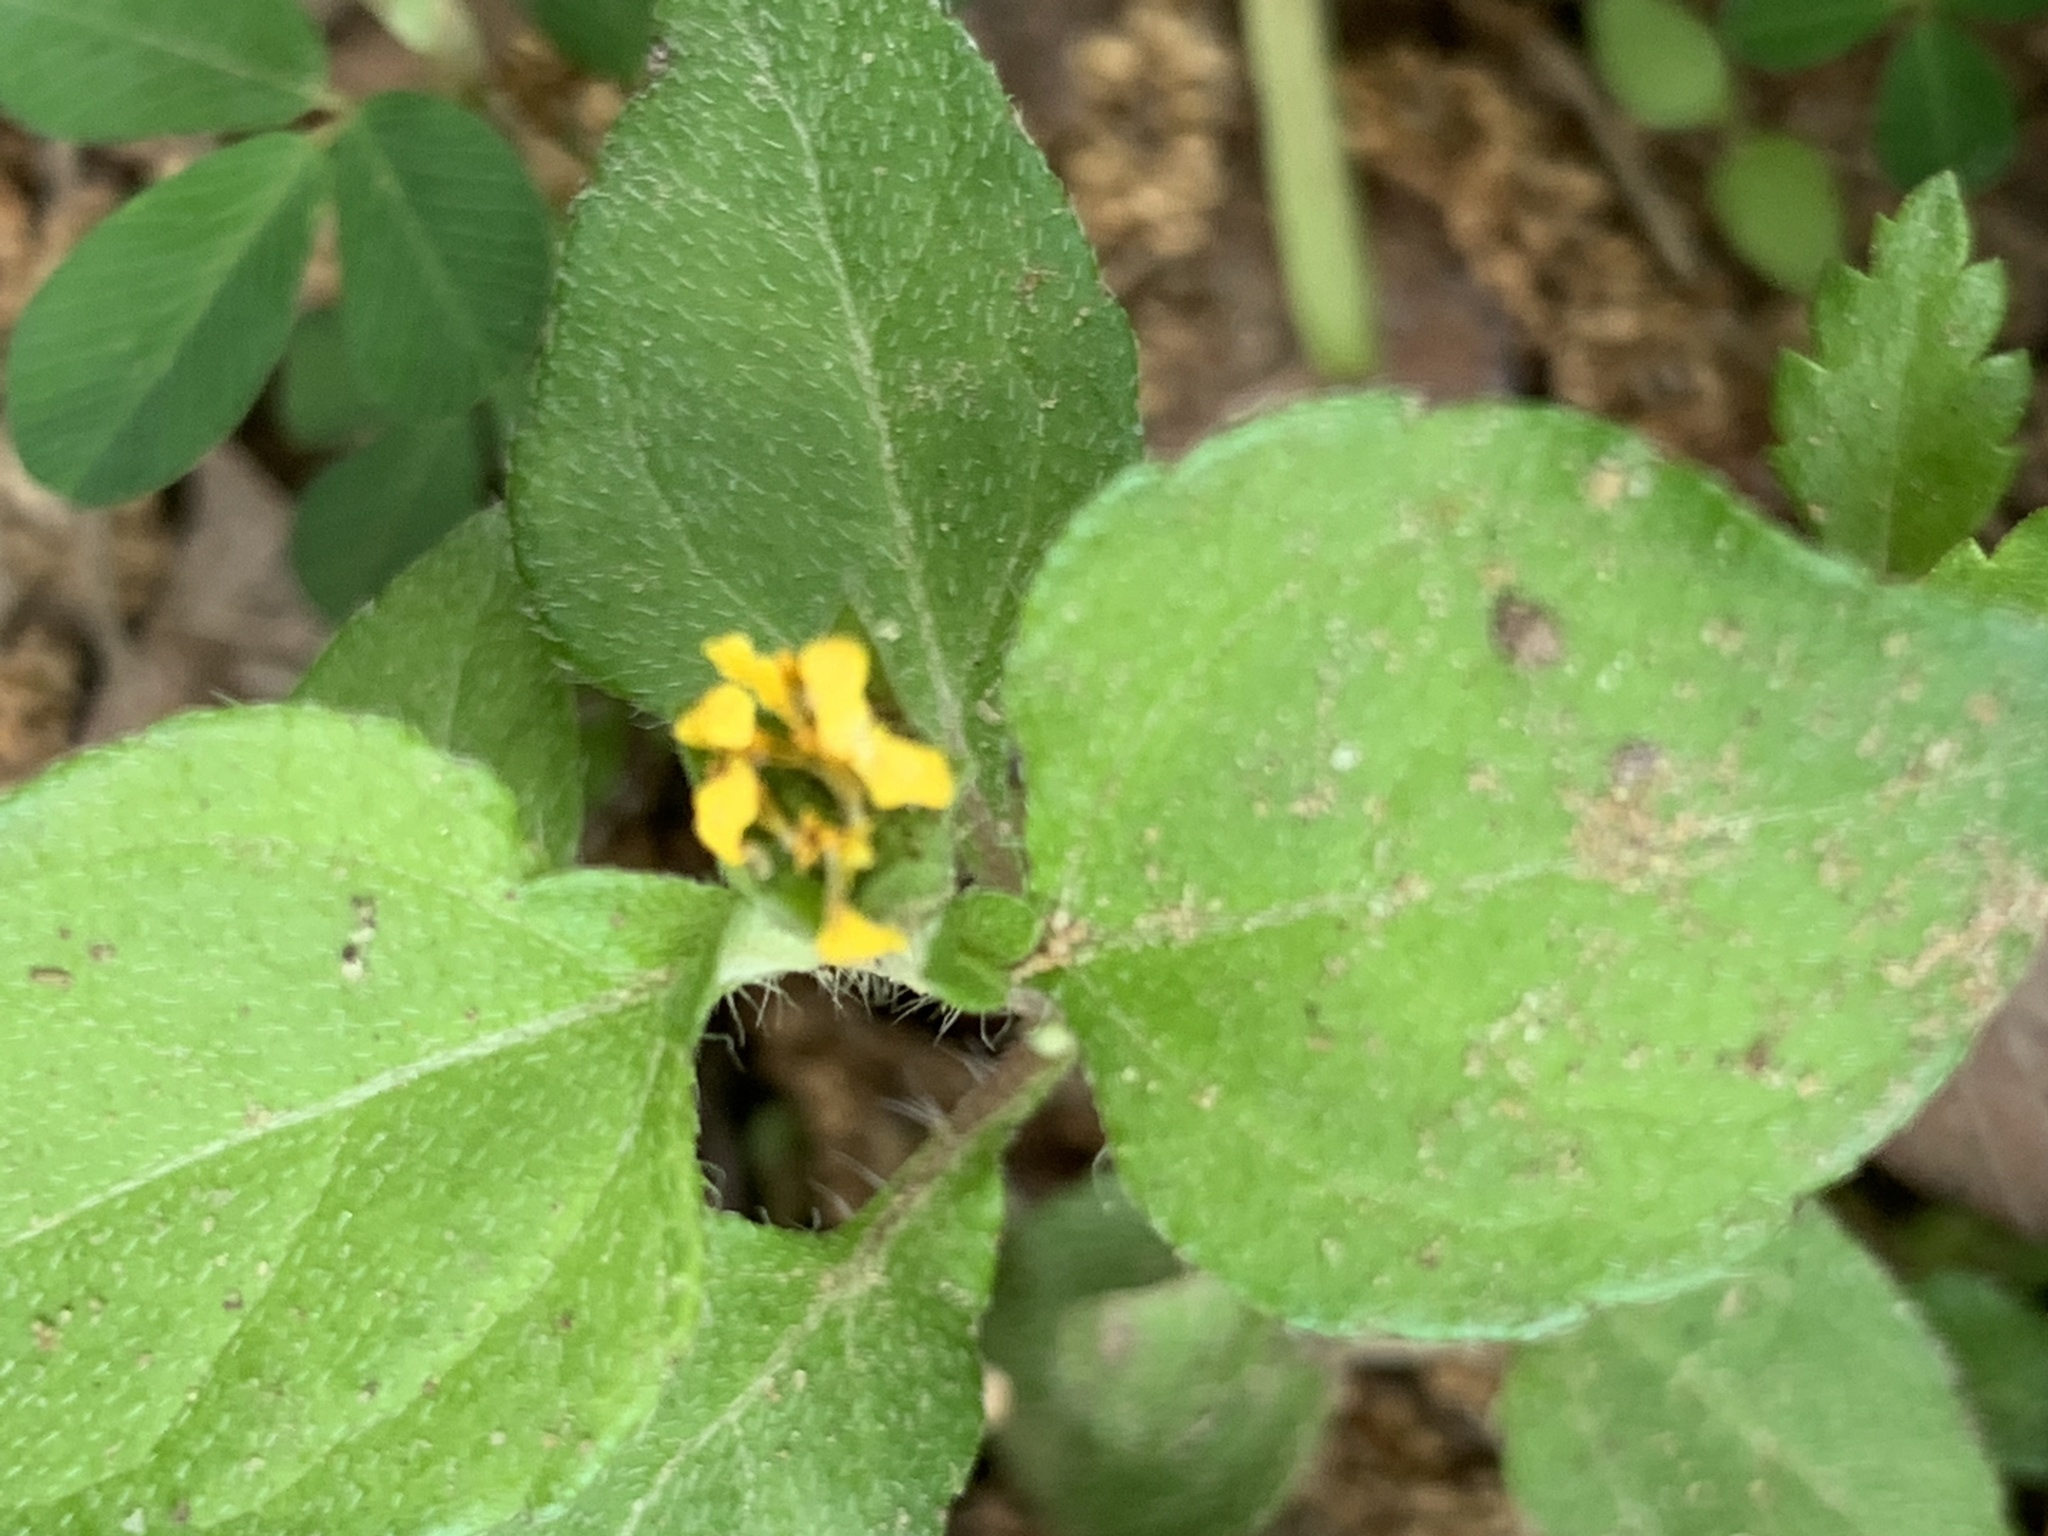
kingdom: Plantae
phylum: Tracheophyta
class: Magnoliopsida
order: Asterales
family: Asteraceae
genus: Calyptocarpus
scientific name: Calyptocarpus vialis
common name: Straggler daisy
